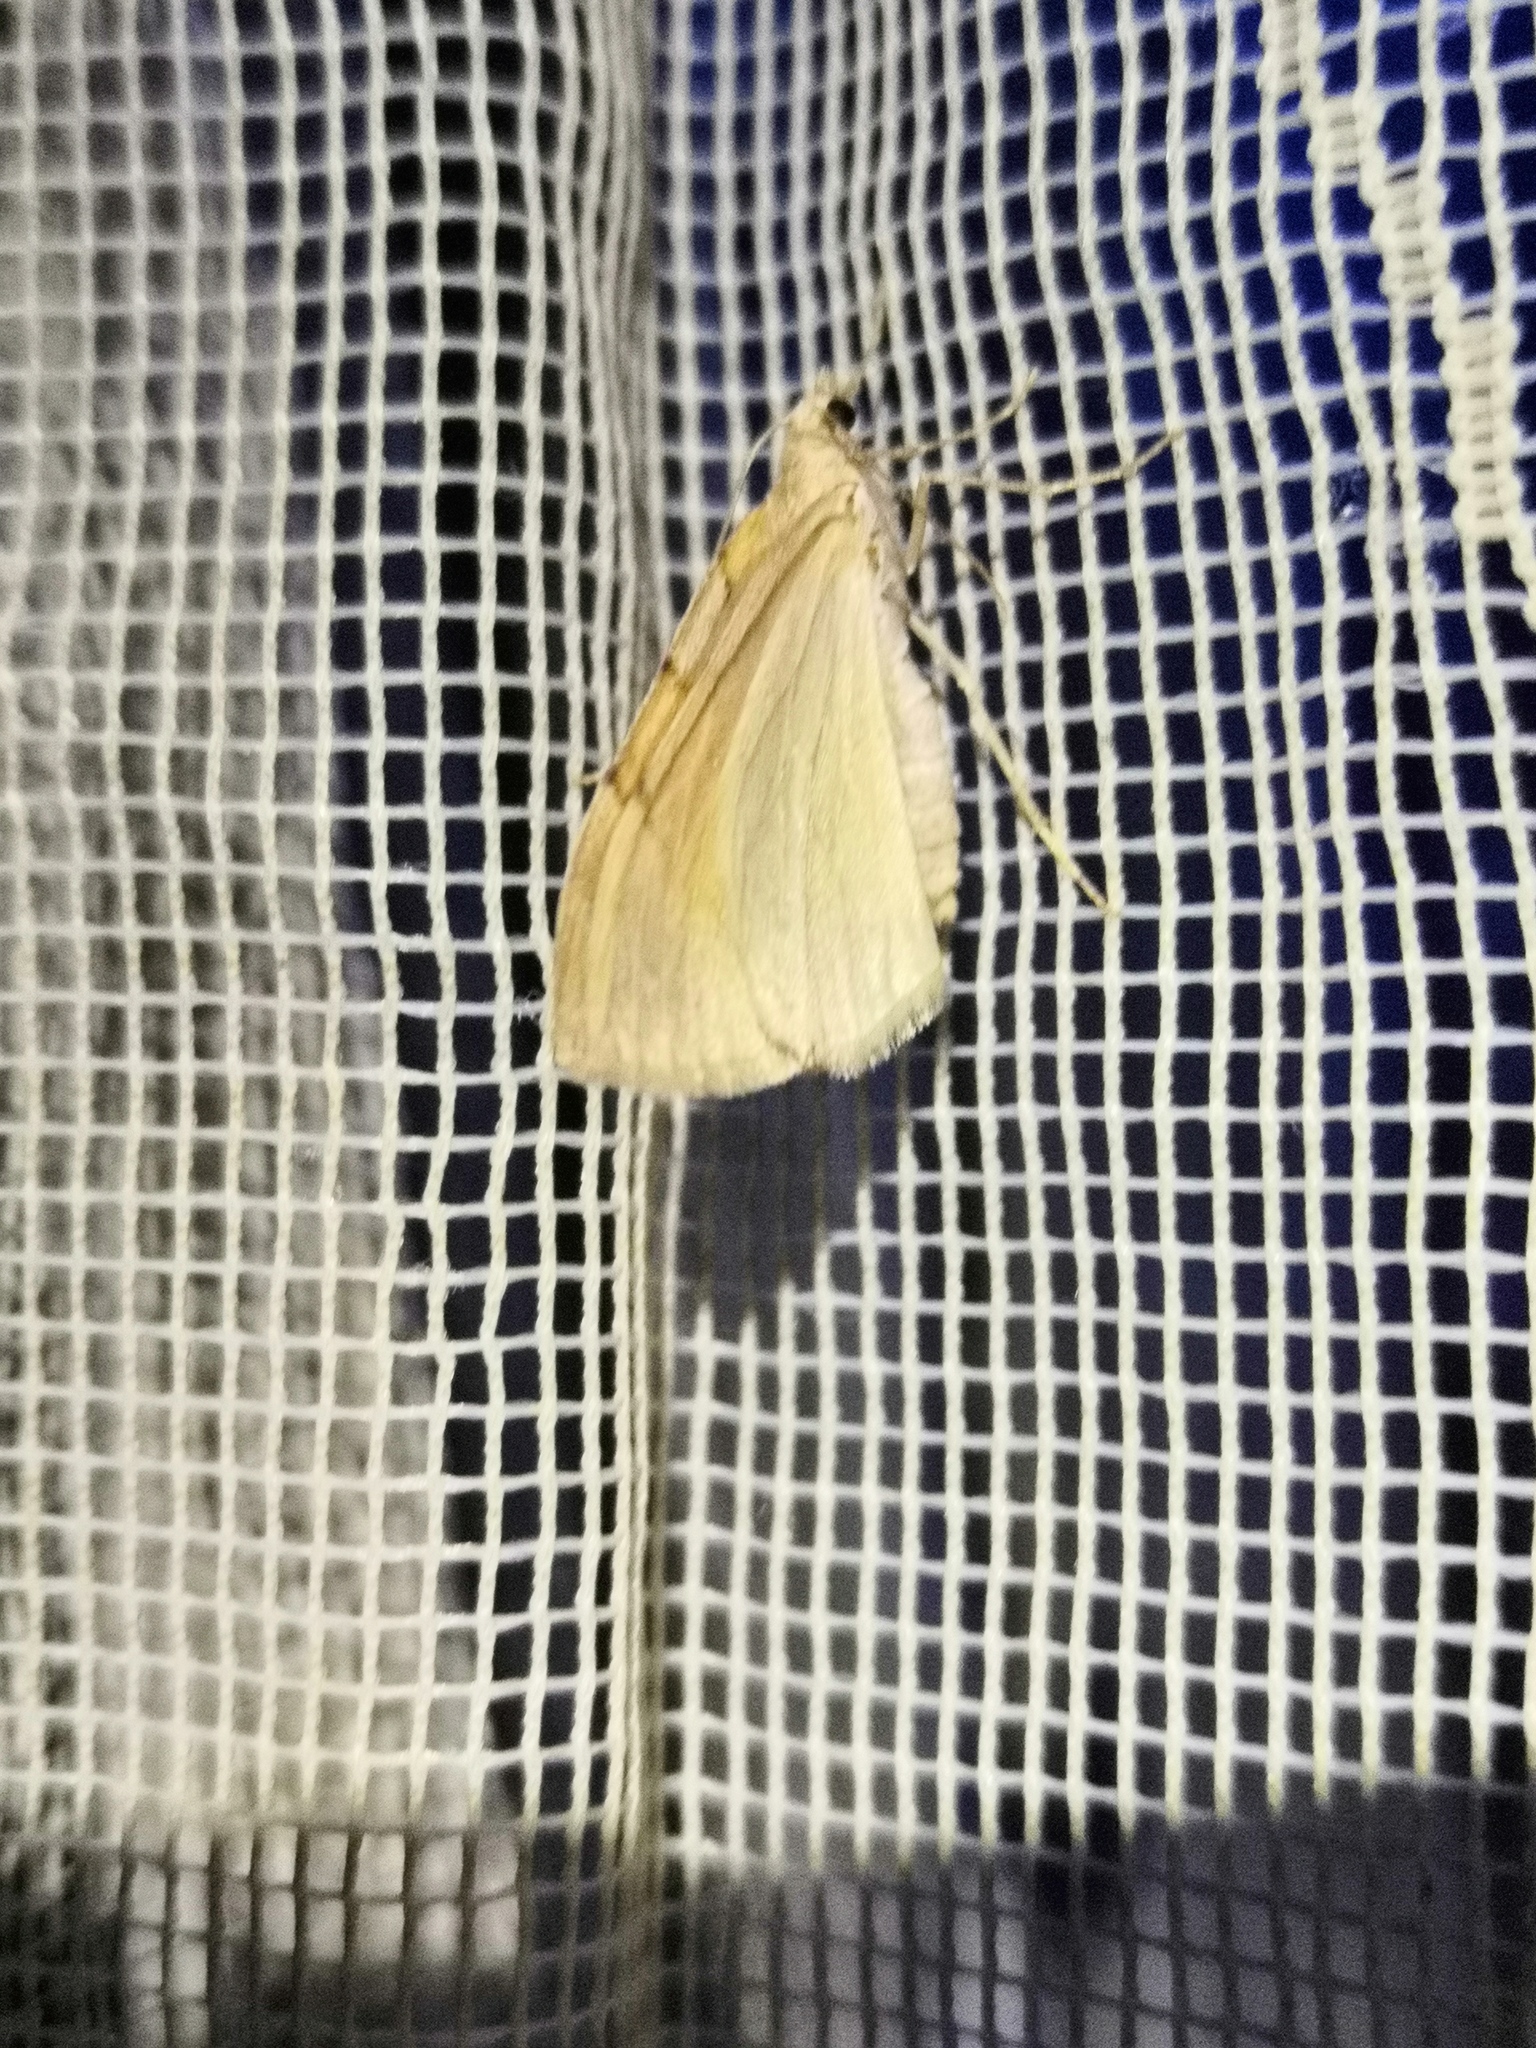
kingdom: Animalia
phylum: Arthropoda
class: Insecta
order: Lepidoptera
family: Geometridae
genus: Pennithera
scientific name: Pennithera firmata
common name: Pine carpet
